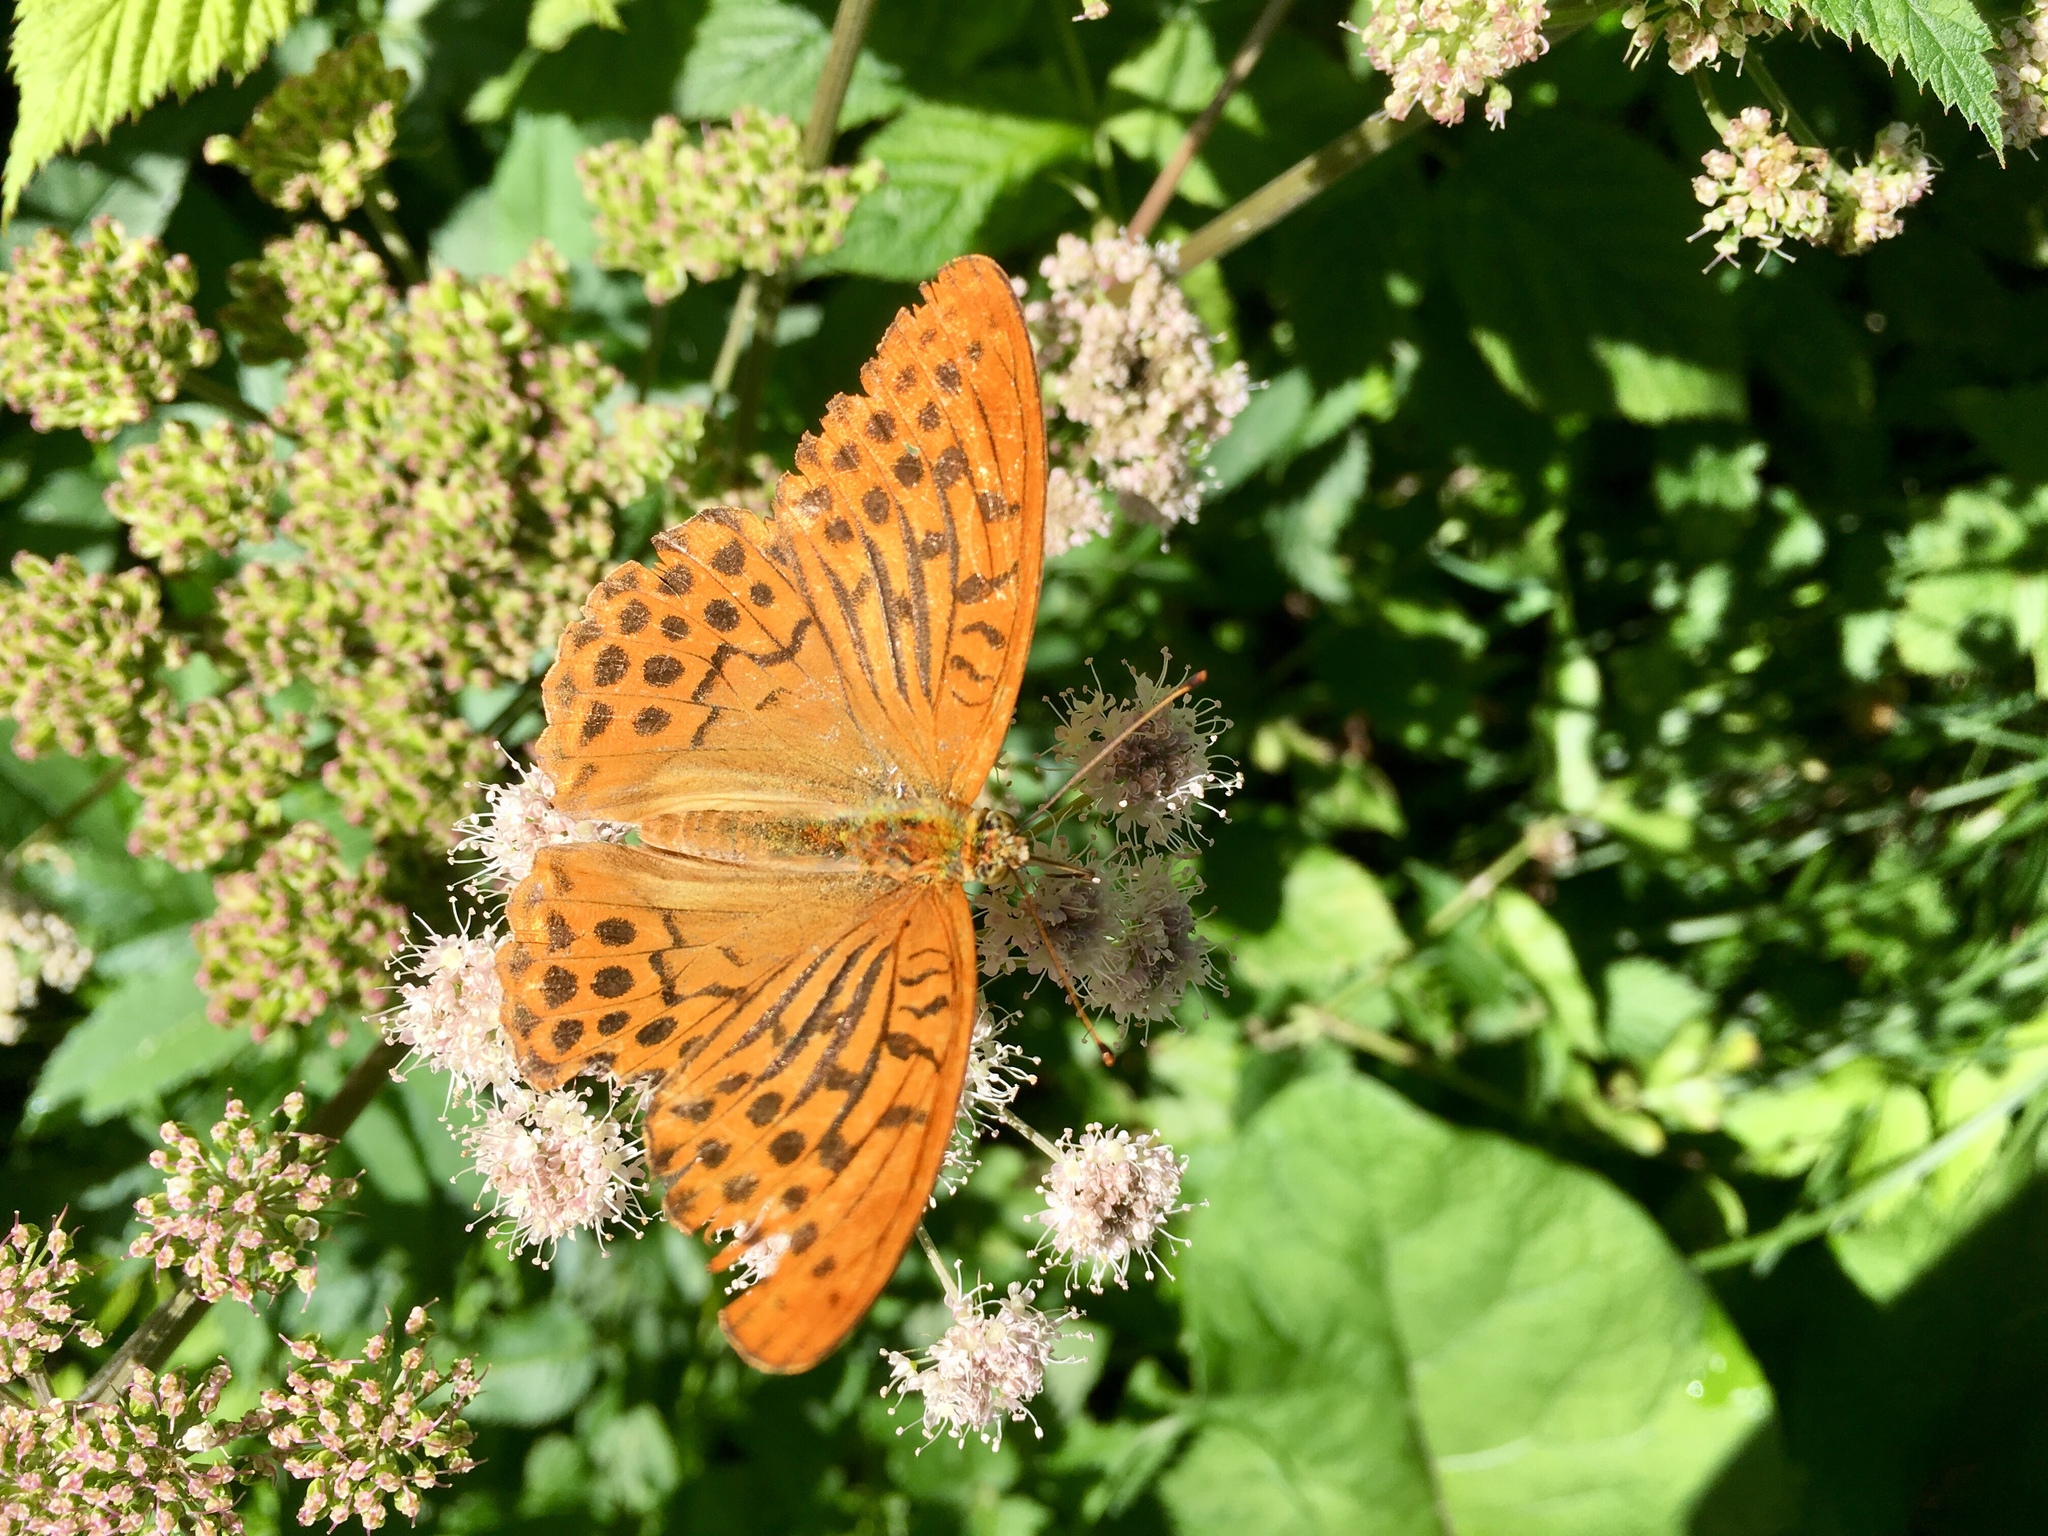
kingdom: Animalia
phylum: Arthropoda
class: Insecta
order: Lepidoptera
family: Nymphalidae
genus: Argynnis
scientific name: Argynnis paphia
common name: Silver-washed fritillary
